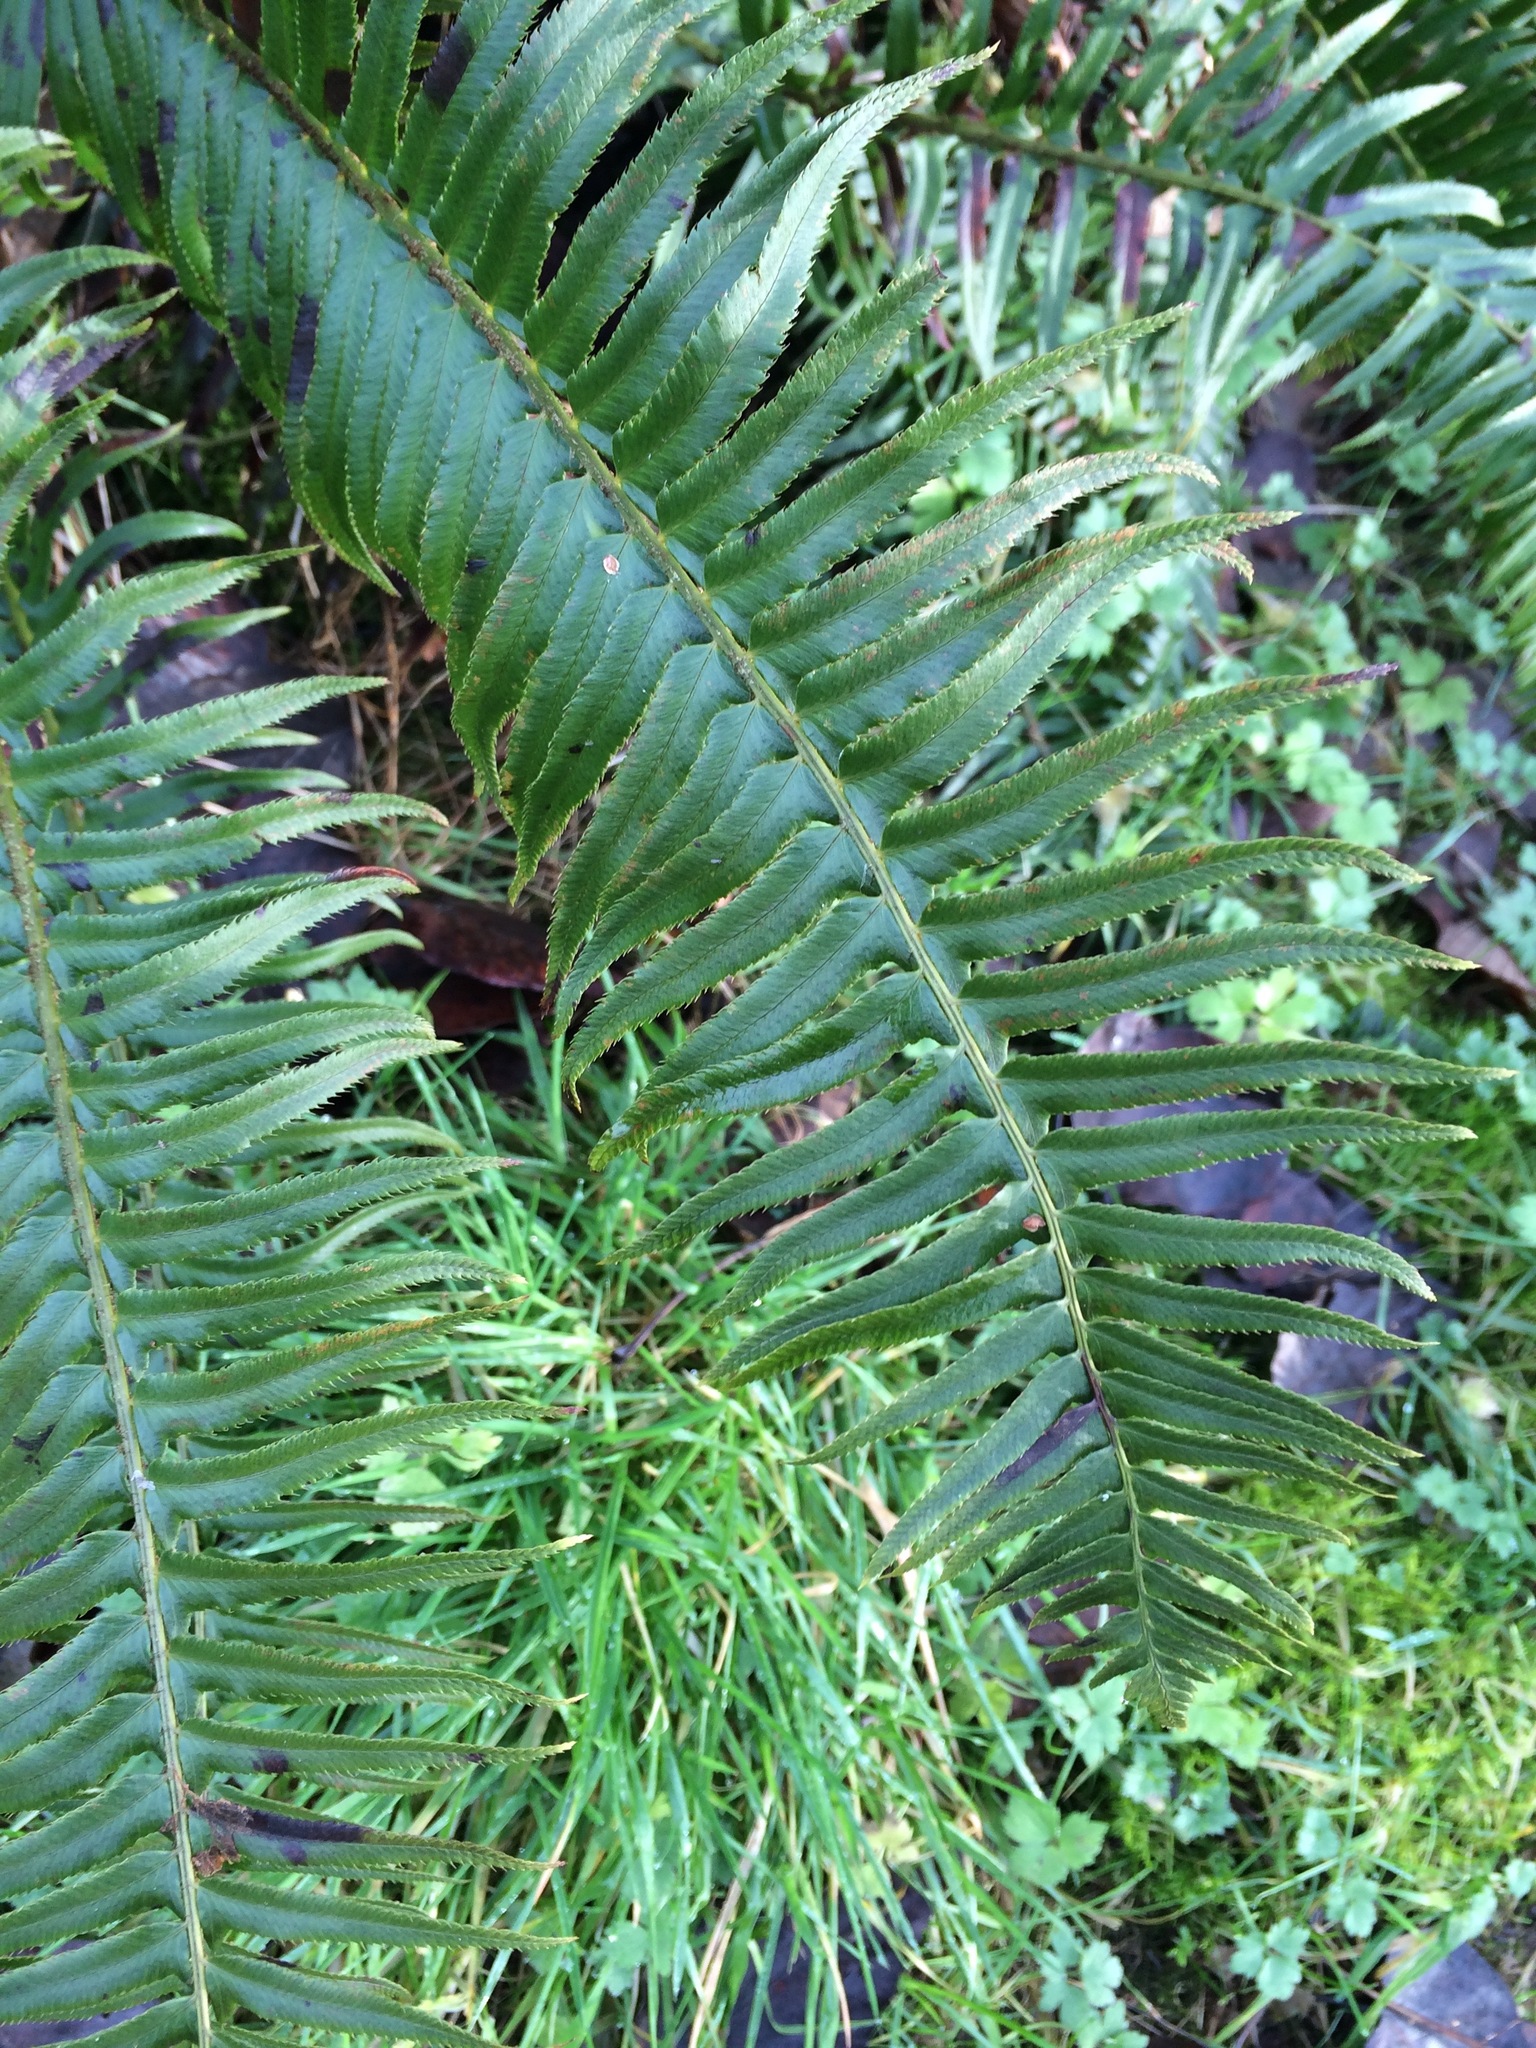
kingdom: Plantae
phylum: Tracheophyta
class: Polypodiopsida
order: Polypodiales
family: Dryopteridaceae
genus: Polystichum
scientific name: Polystichum munitum
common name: Western sword-fern
